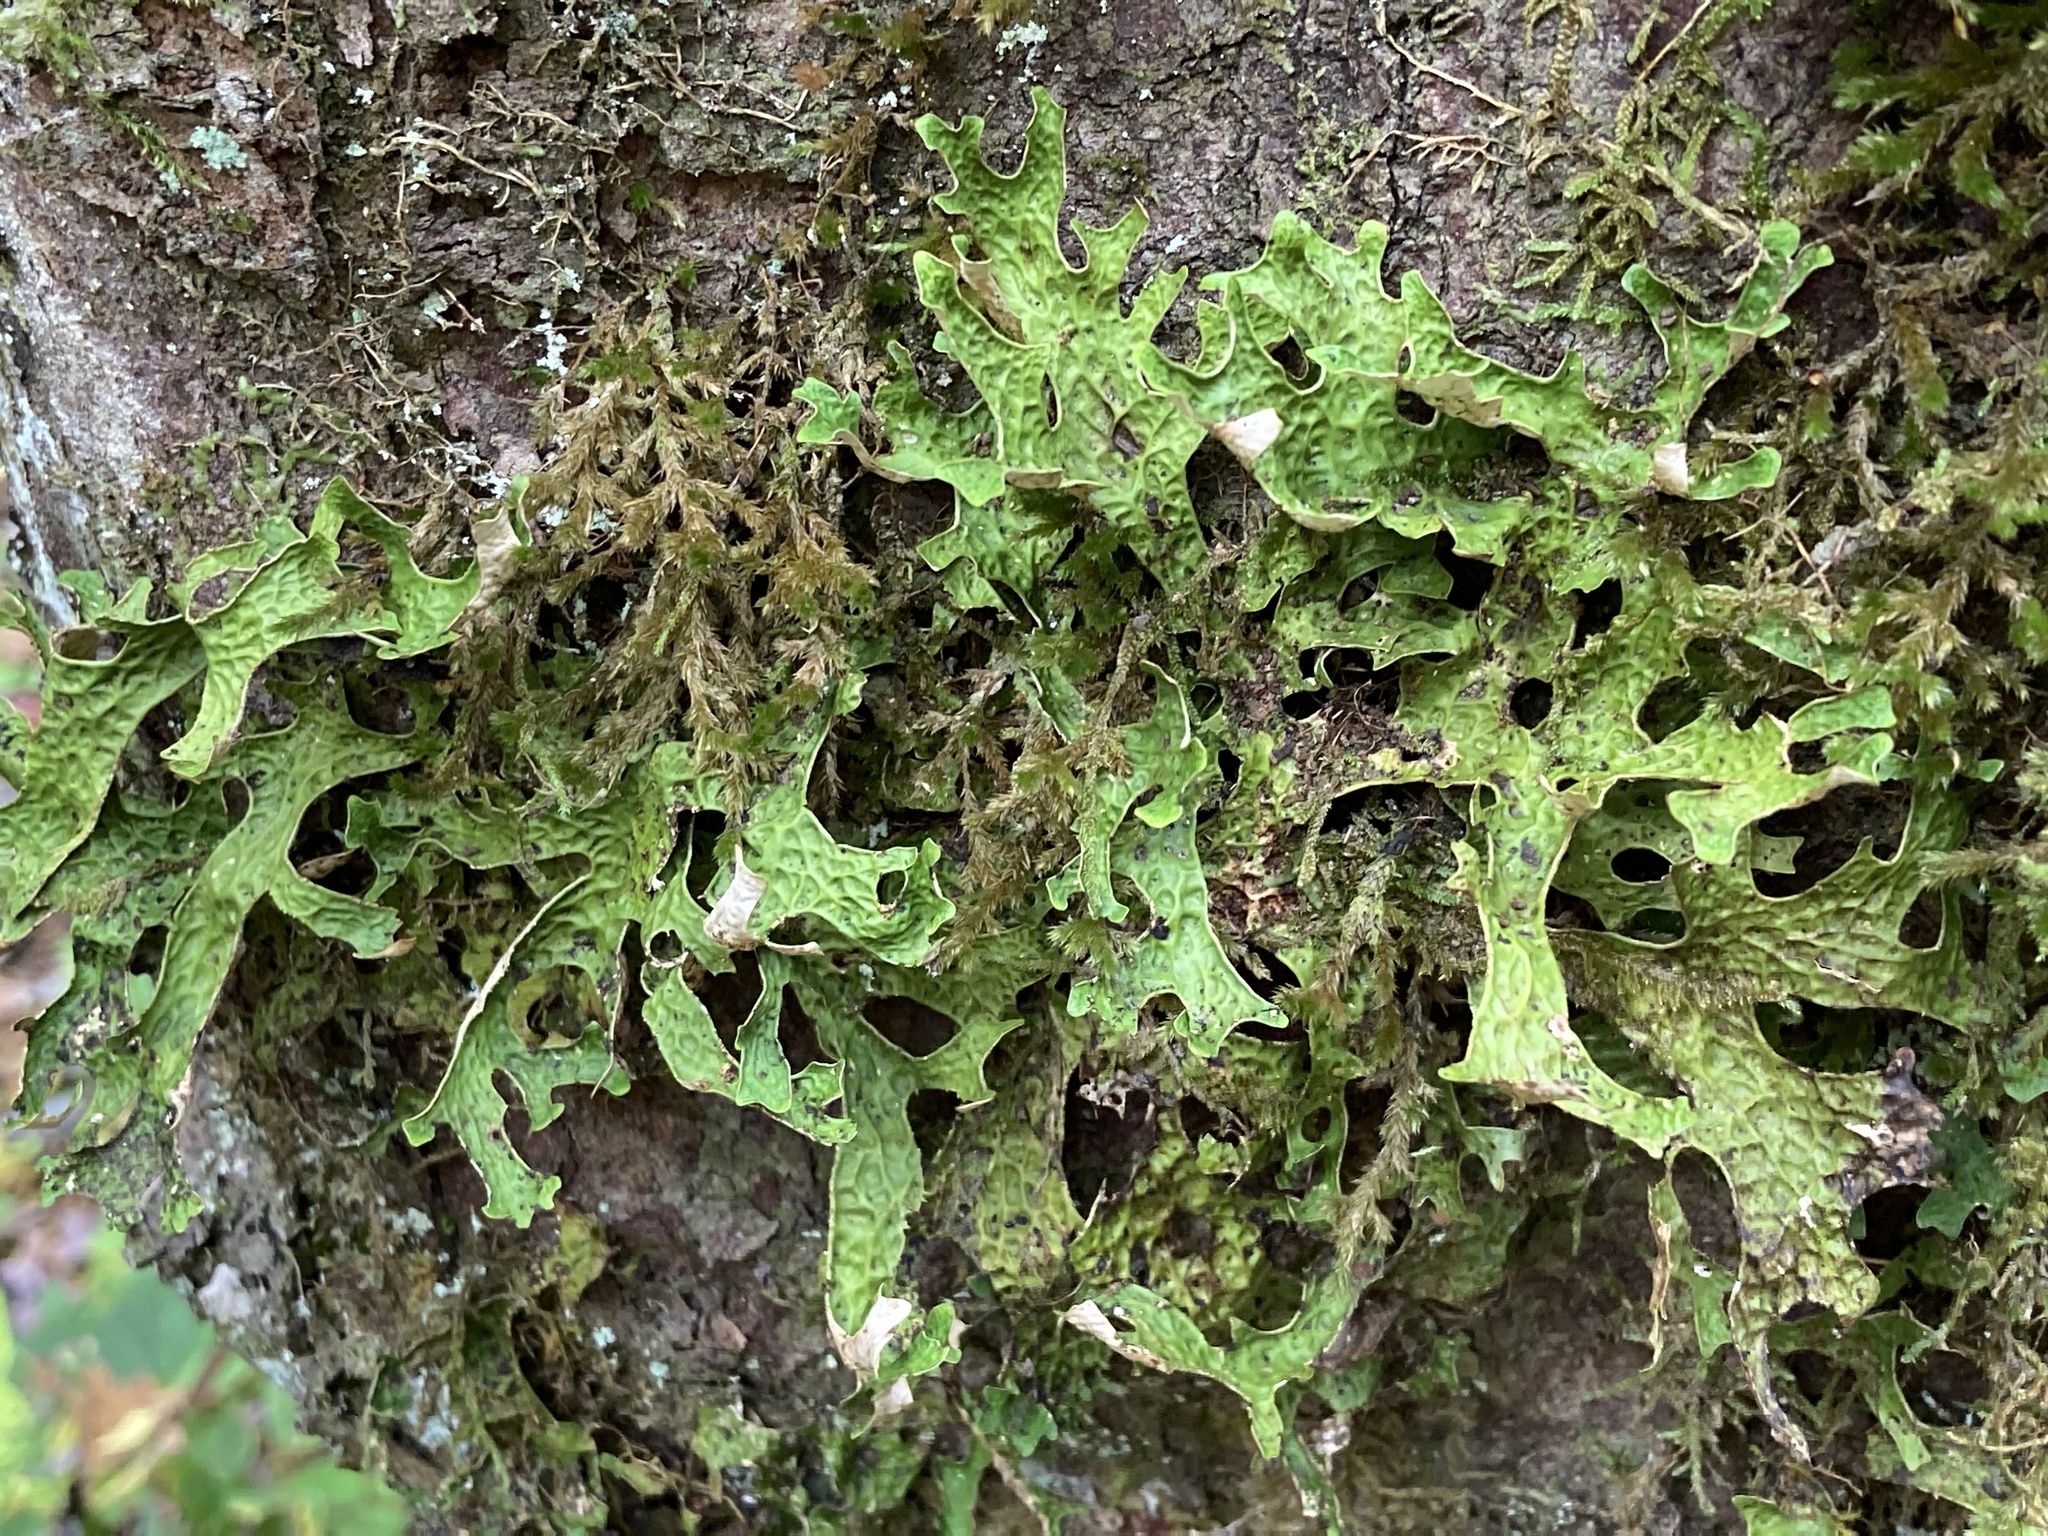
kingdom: Fungi
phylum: Ascomycota
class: Lecanoromycetes
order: Peltigerales
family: Lobariaceae
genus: Lobaria
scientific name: Lobaria pulmonaria
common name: Lungwort
